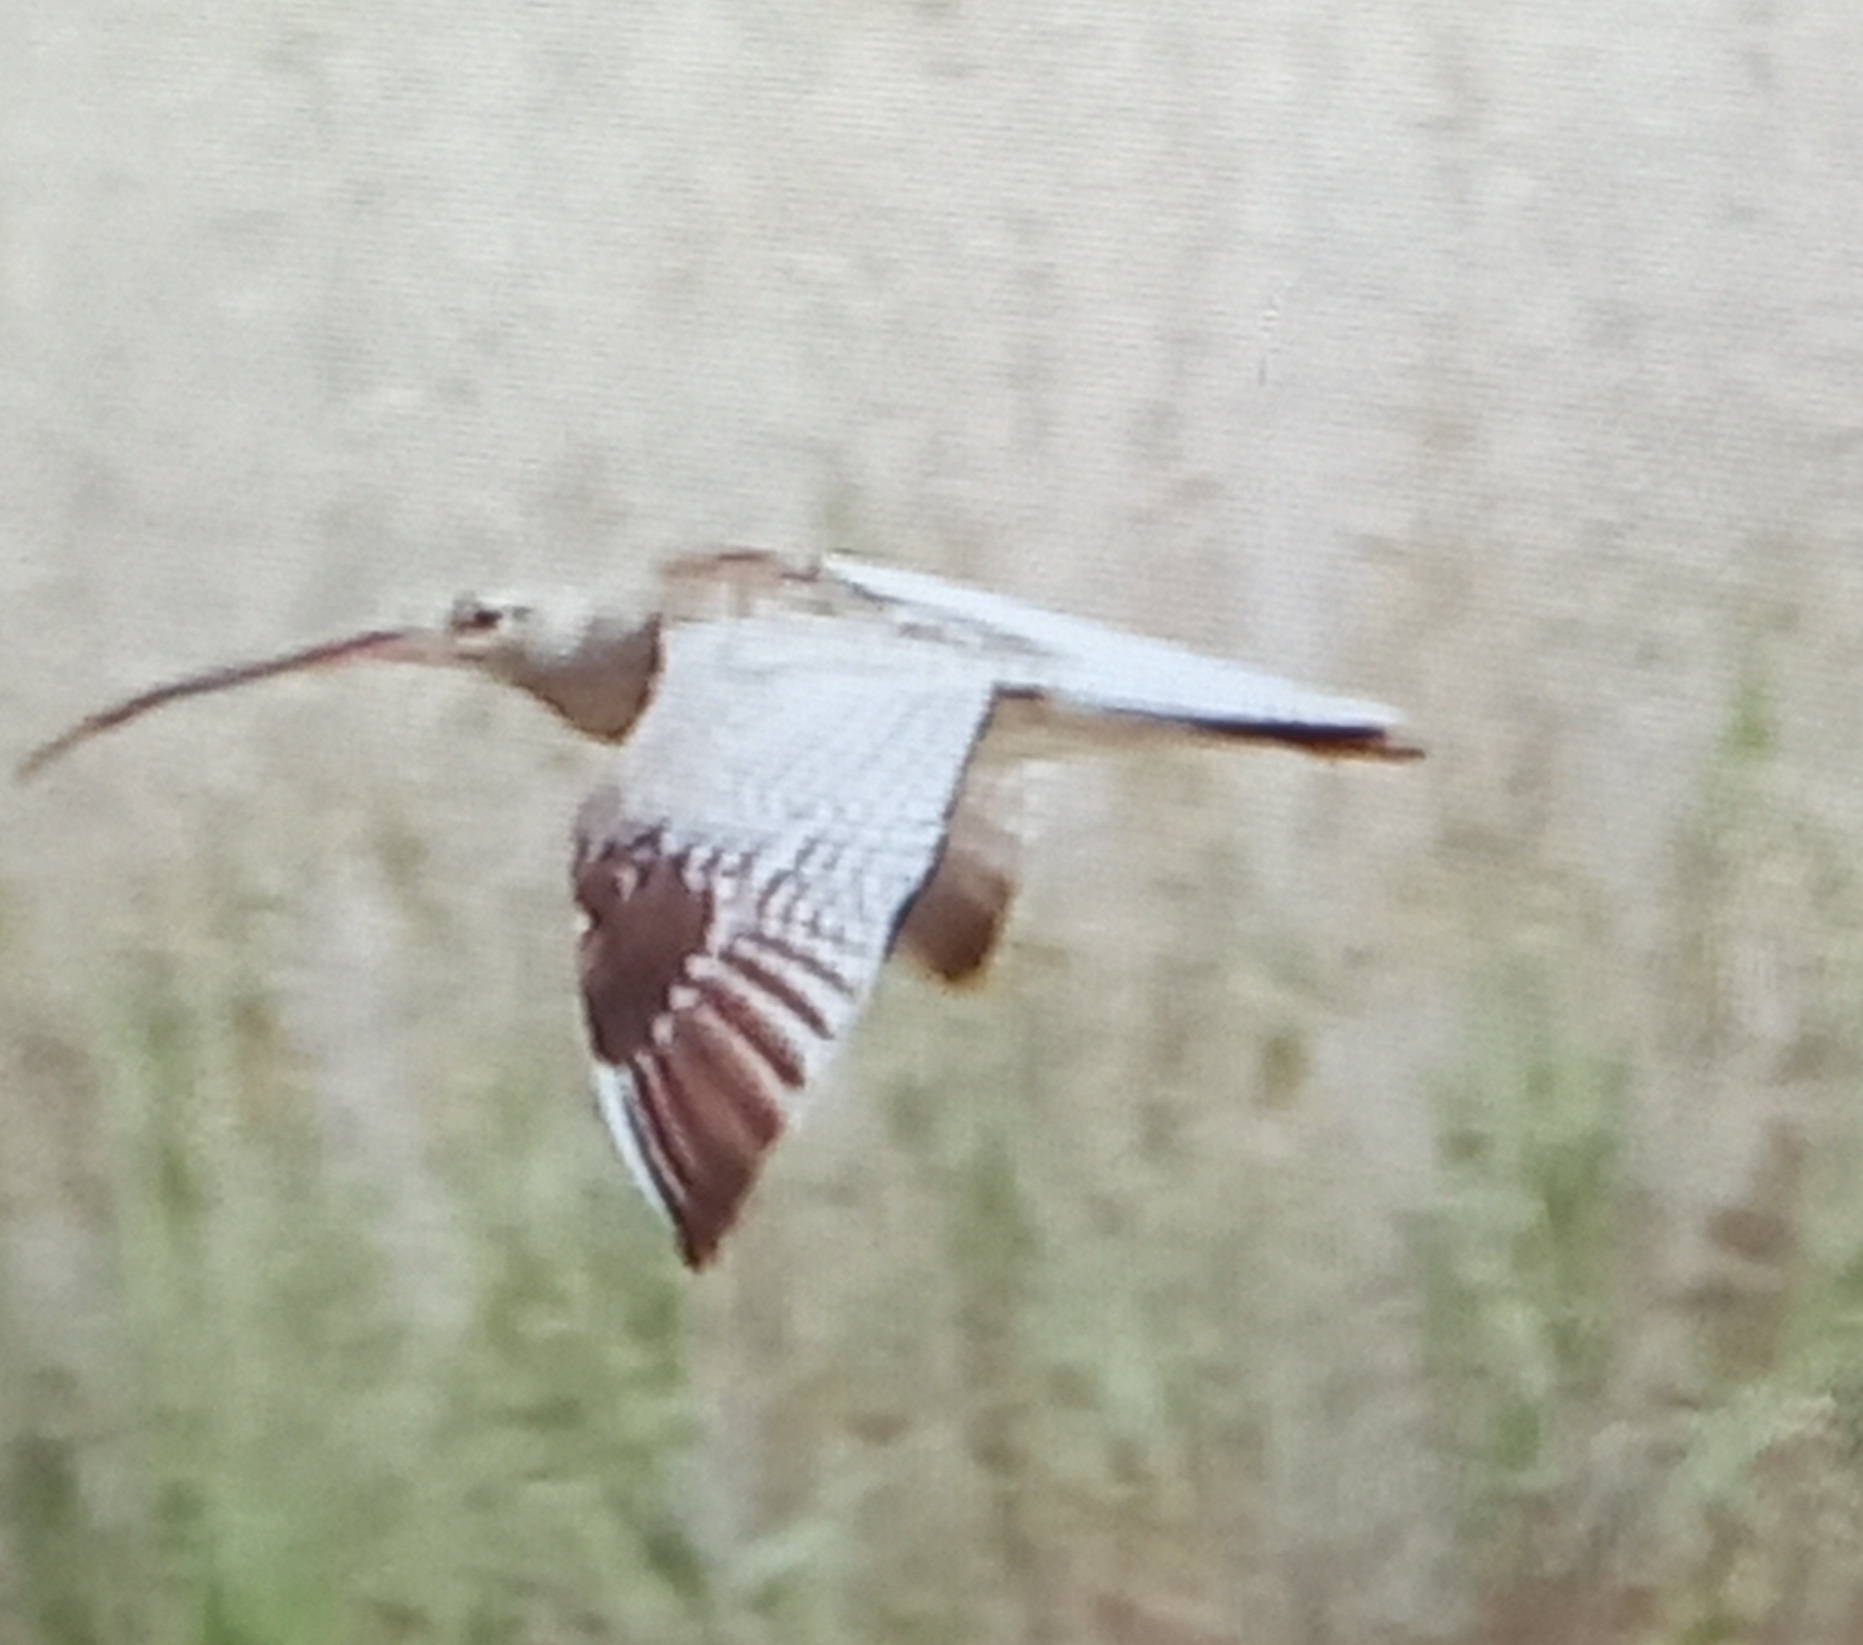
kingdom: Animalia
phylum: Chordata
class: Aves
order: Charadriiformes
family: Scolopacidae
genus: Numenius
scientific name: Numenius arquata
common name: Eurasian curlew
